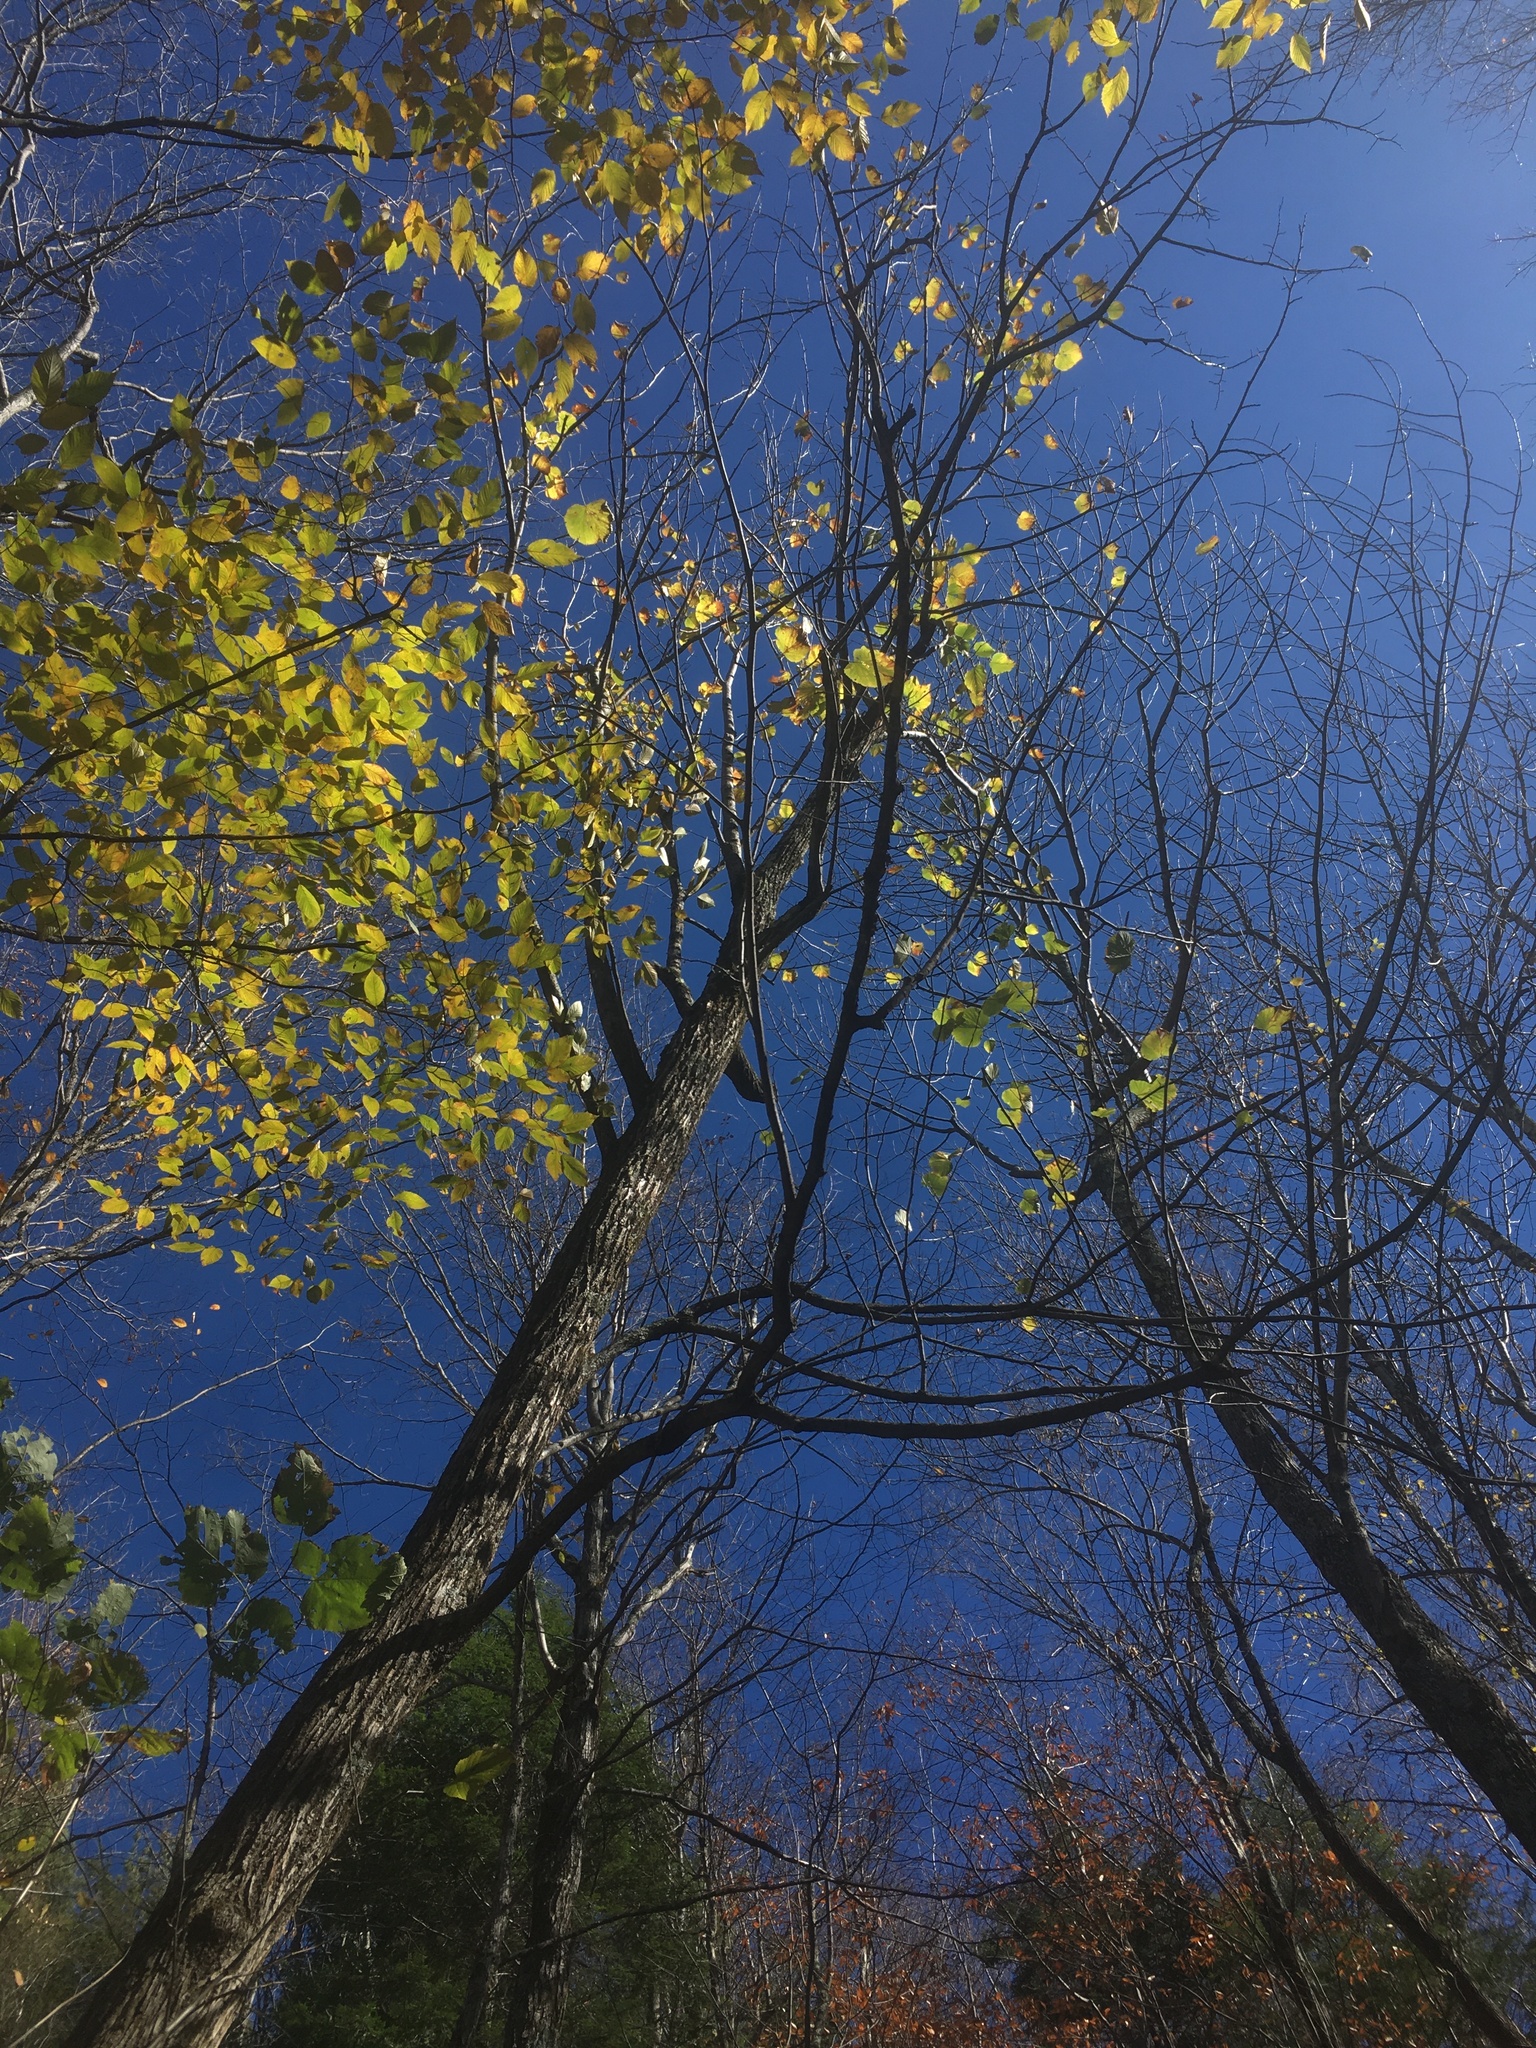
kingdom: Plantae
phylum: Tracheophyta
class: Magnoliopsida
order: Malvales
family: Malvaceae
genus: Tilia
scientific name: Tilia americana
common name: Basswood
